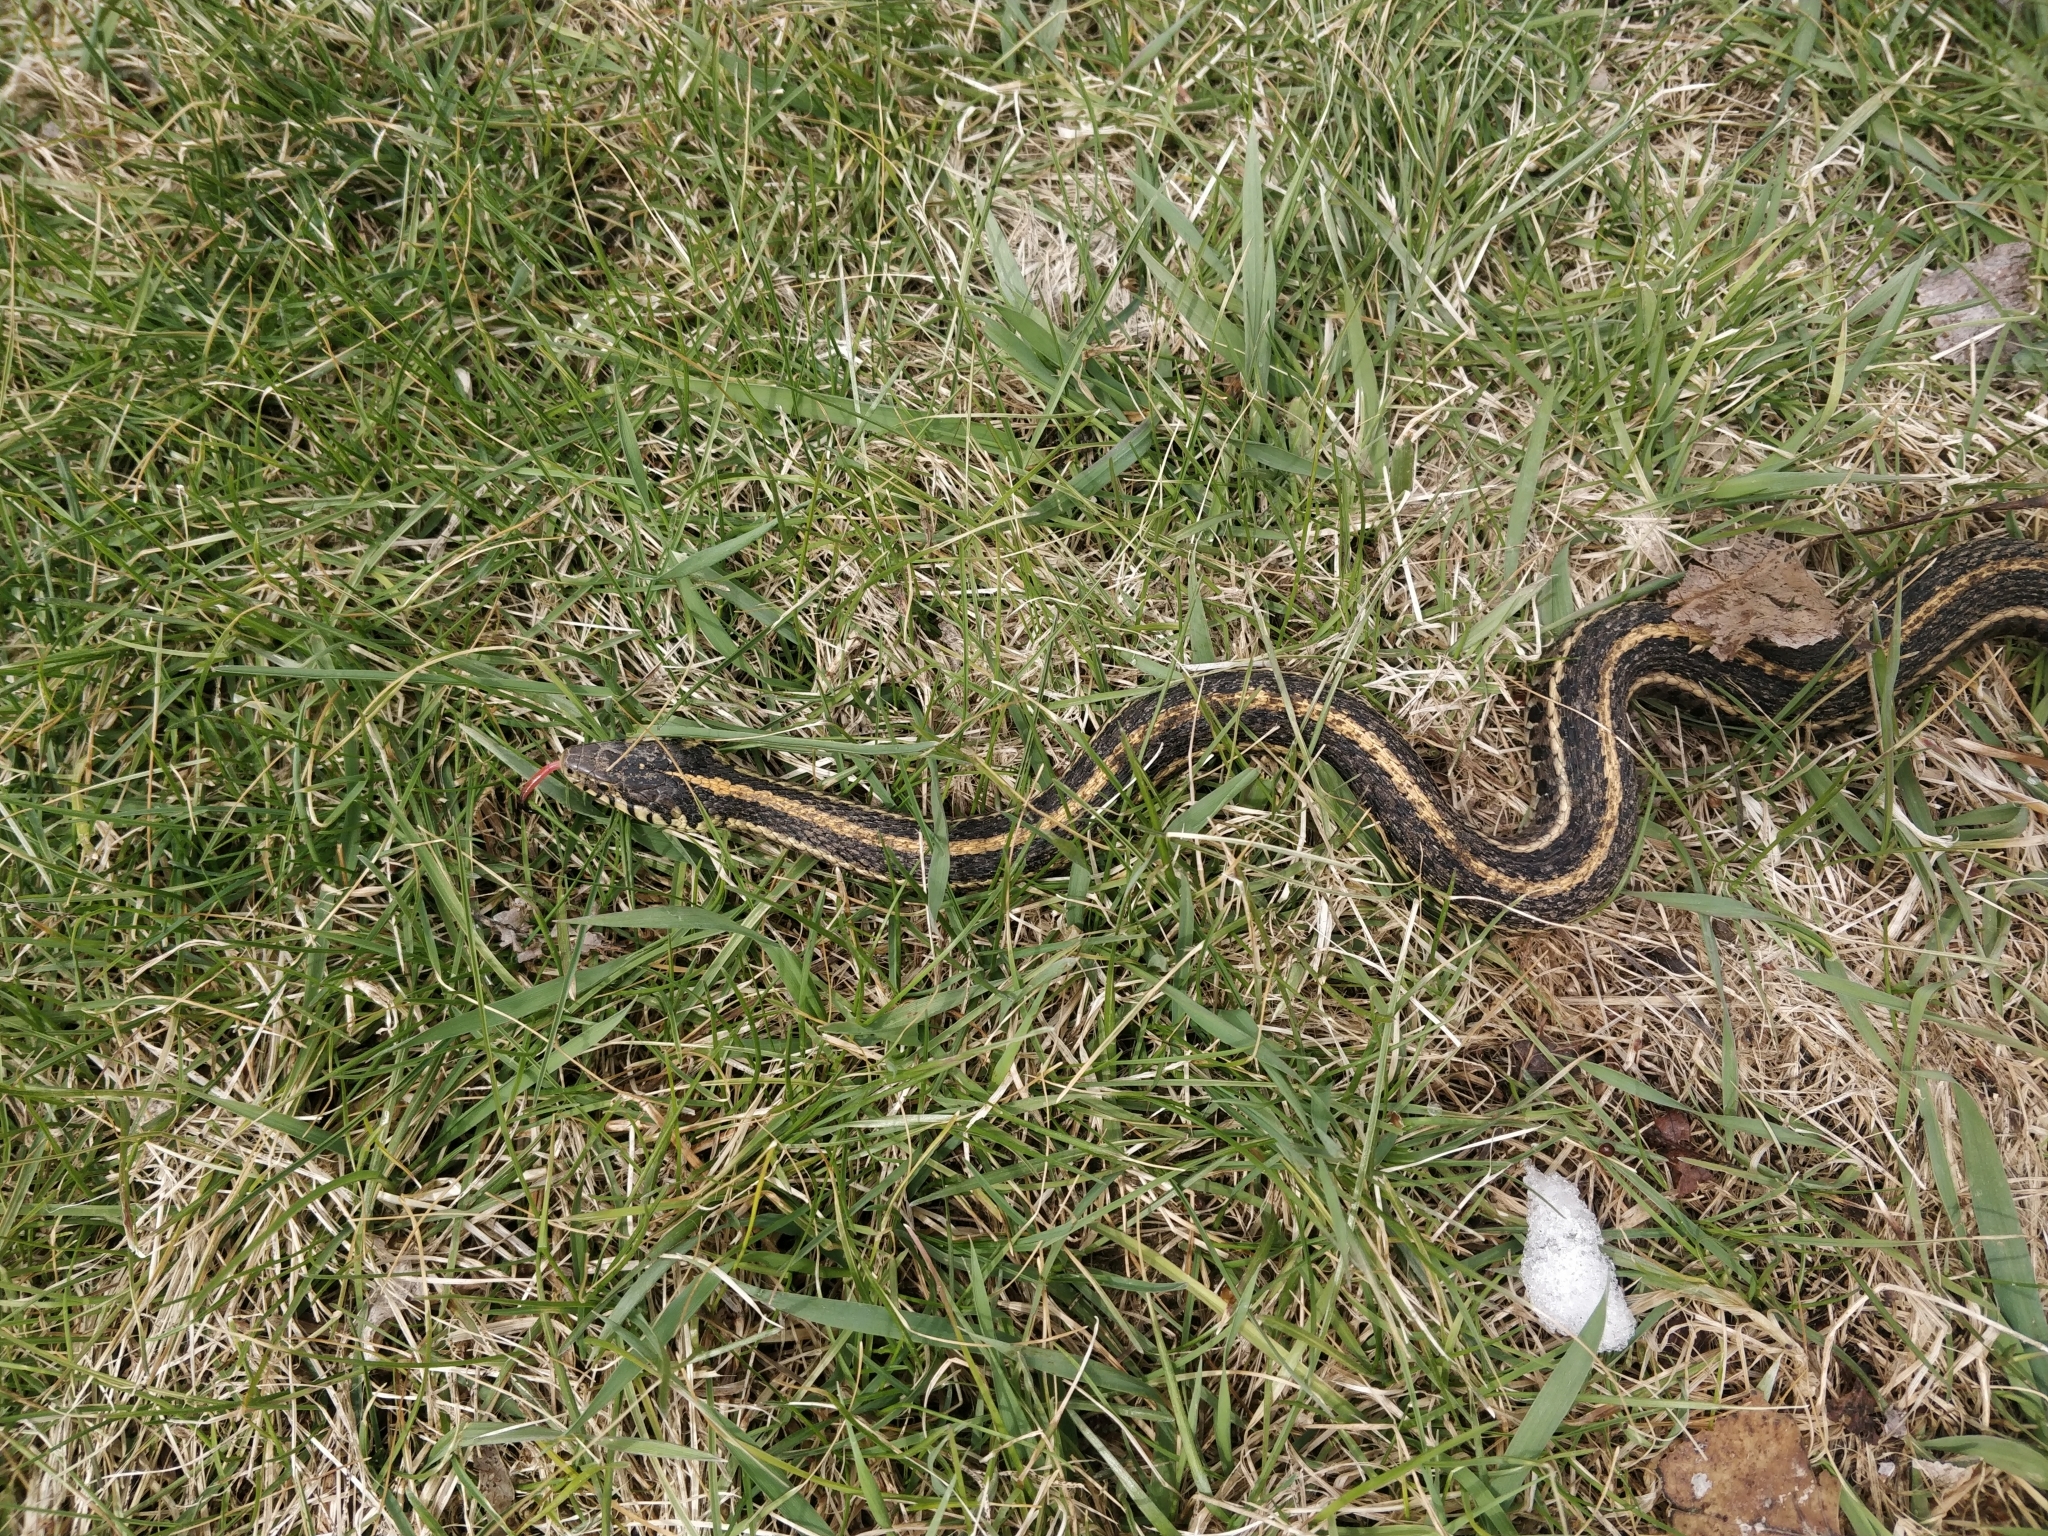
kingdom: Animalia
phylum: Chordata
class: Squamata
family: Colubridae
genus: Thamnophis
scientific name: Thamnophis radix
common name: Plains garter snake
